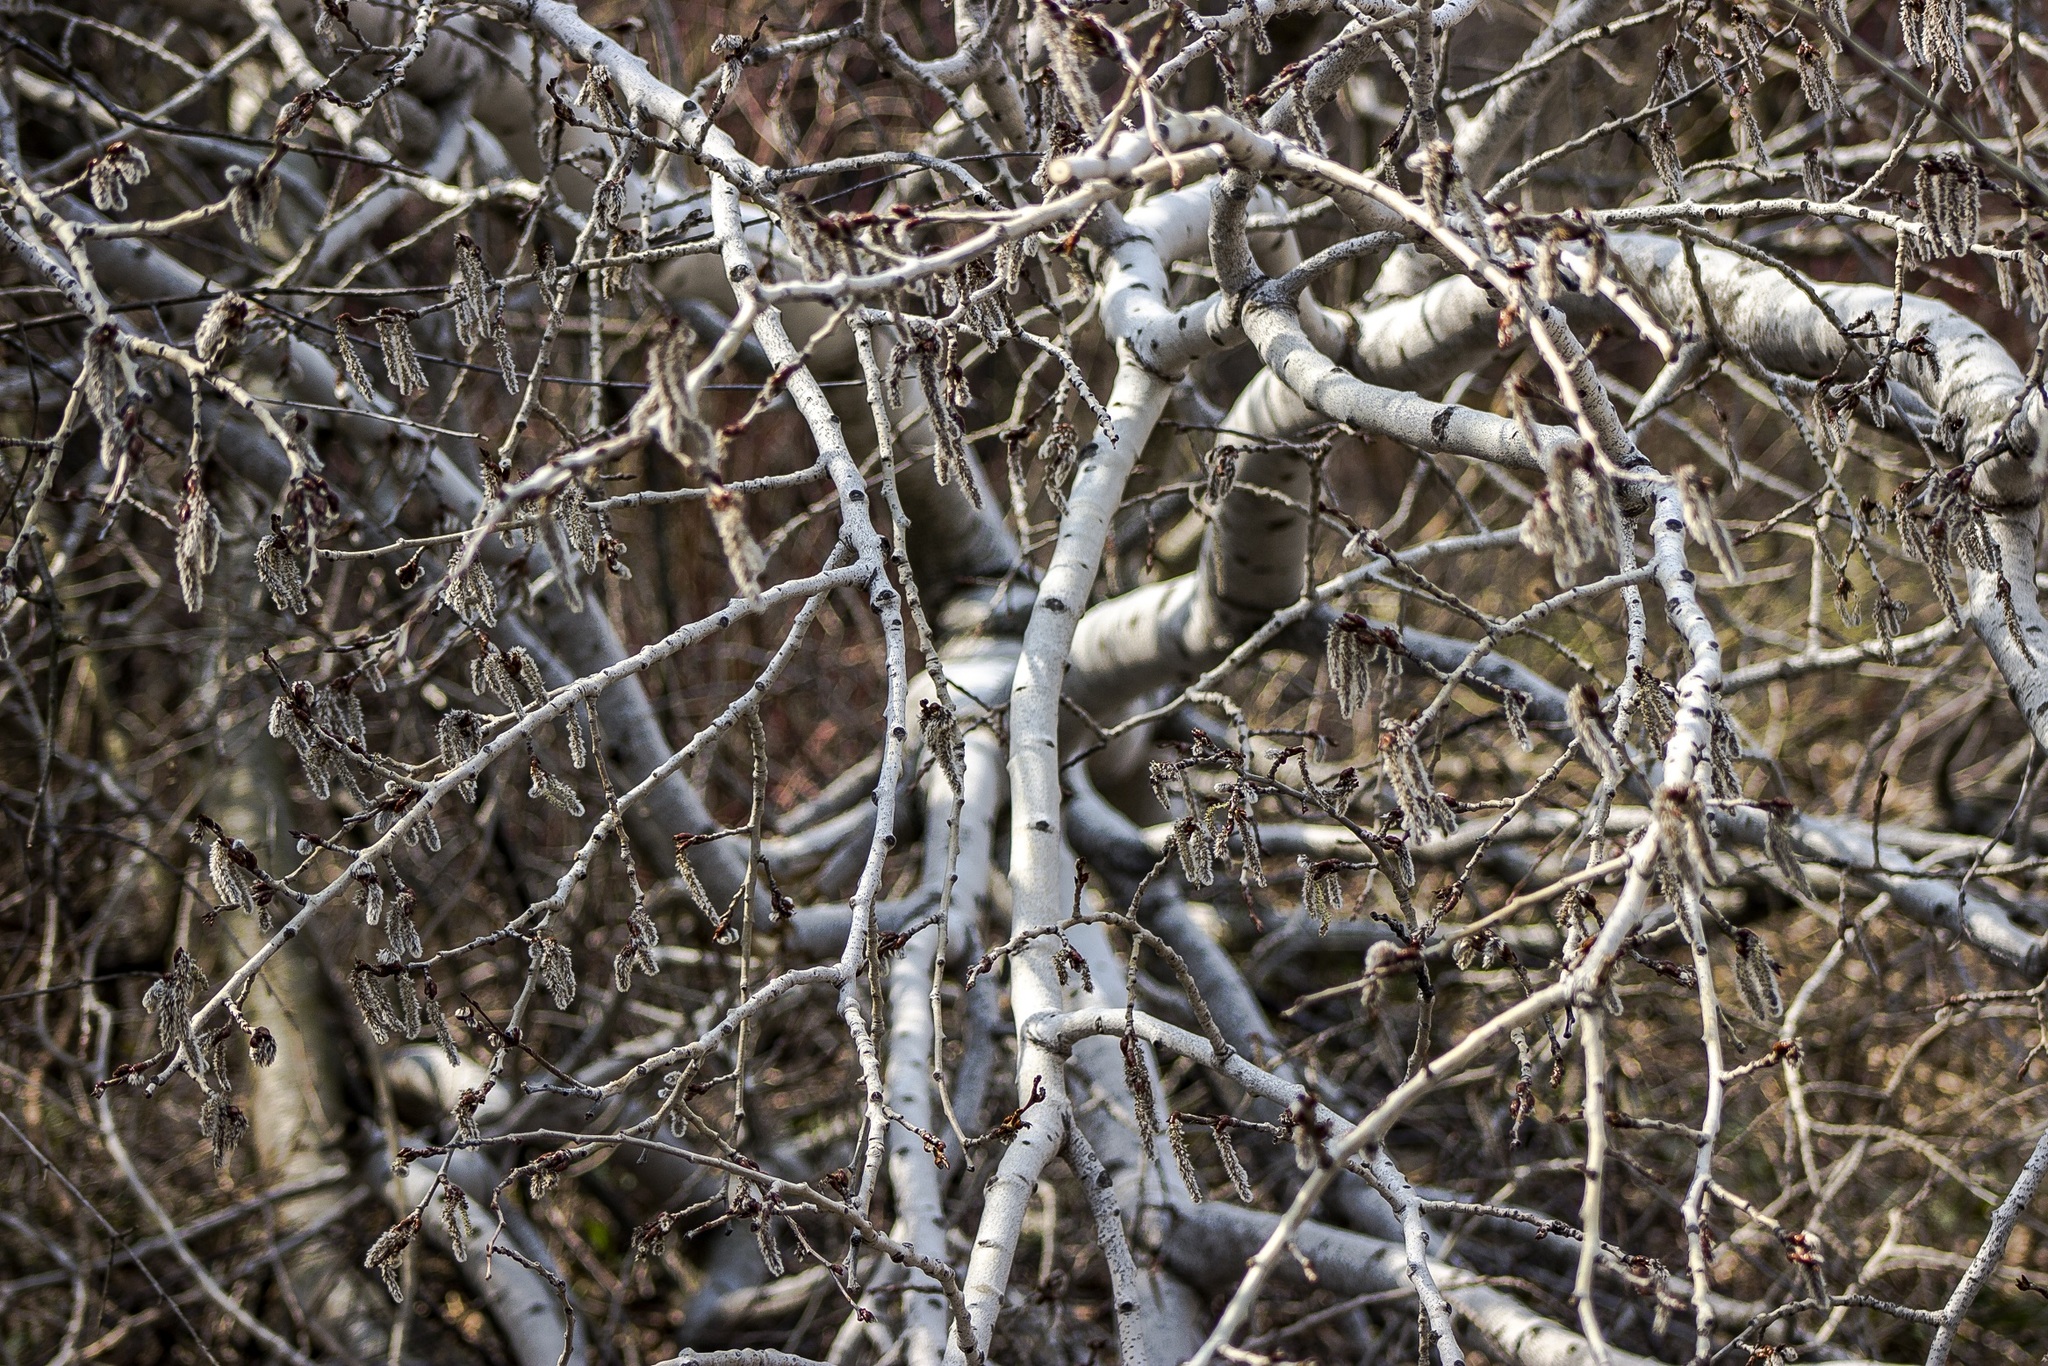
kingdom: Plantae
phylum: Tracheophyta
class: Magnoliopsida
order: Malpighiales
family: Salicaceae
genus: Populus
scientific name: Populus tremuloides
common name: Quaking aspen
